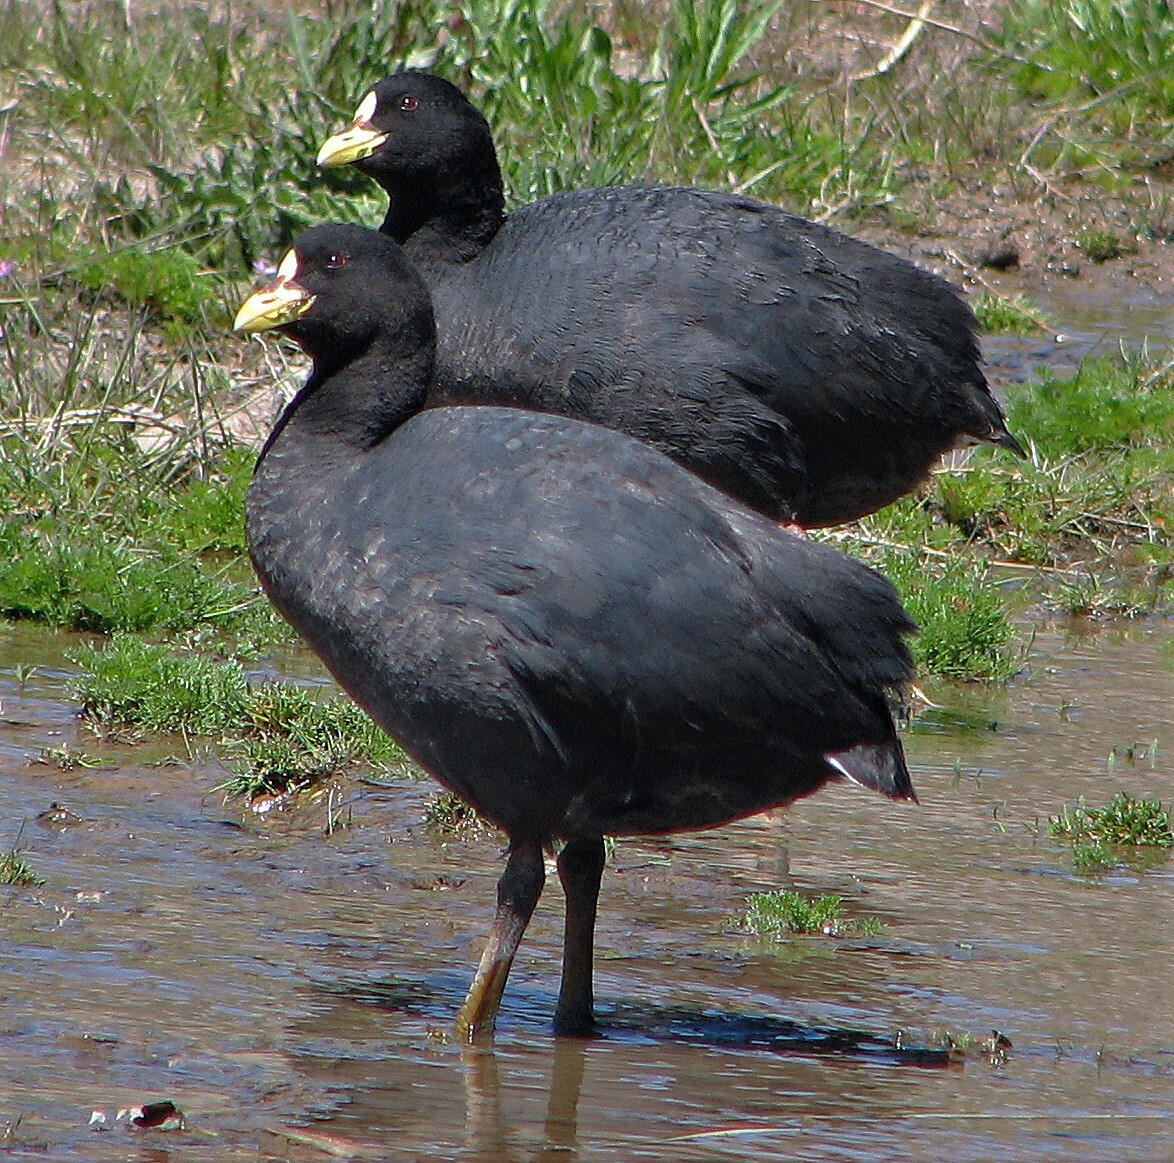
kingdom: Animalia
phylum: Chordata
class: Aves
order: Gruiformes
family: Rallidae
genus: Fulica
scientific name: Fulica armillata
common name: Red-gartered coot
